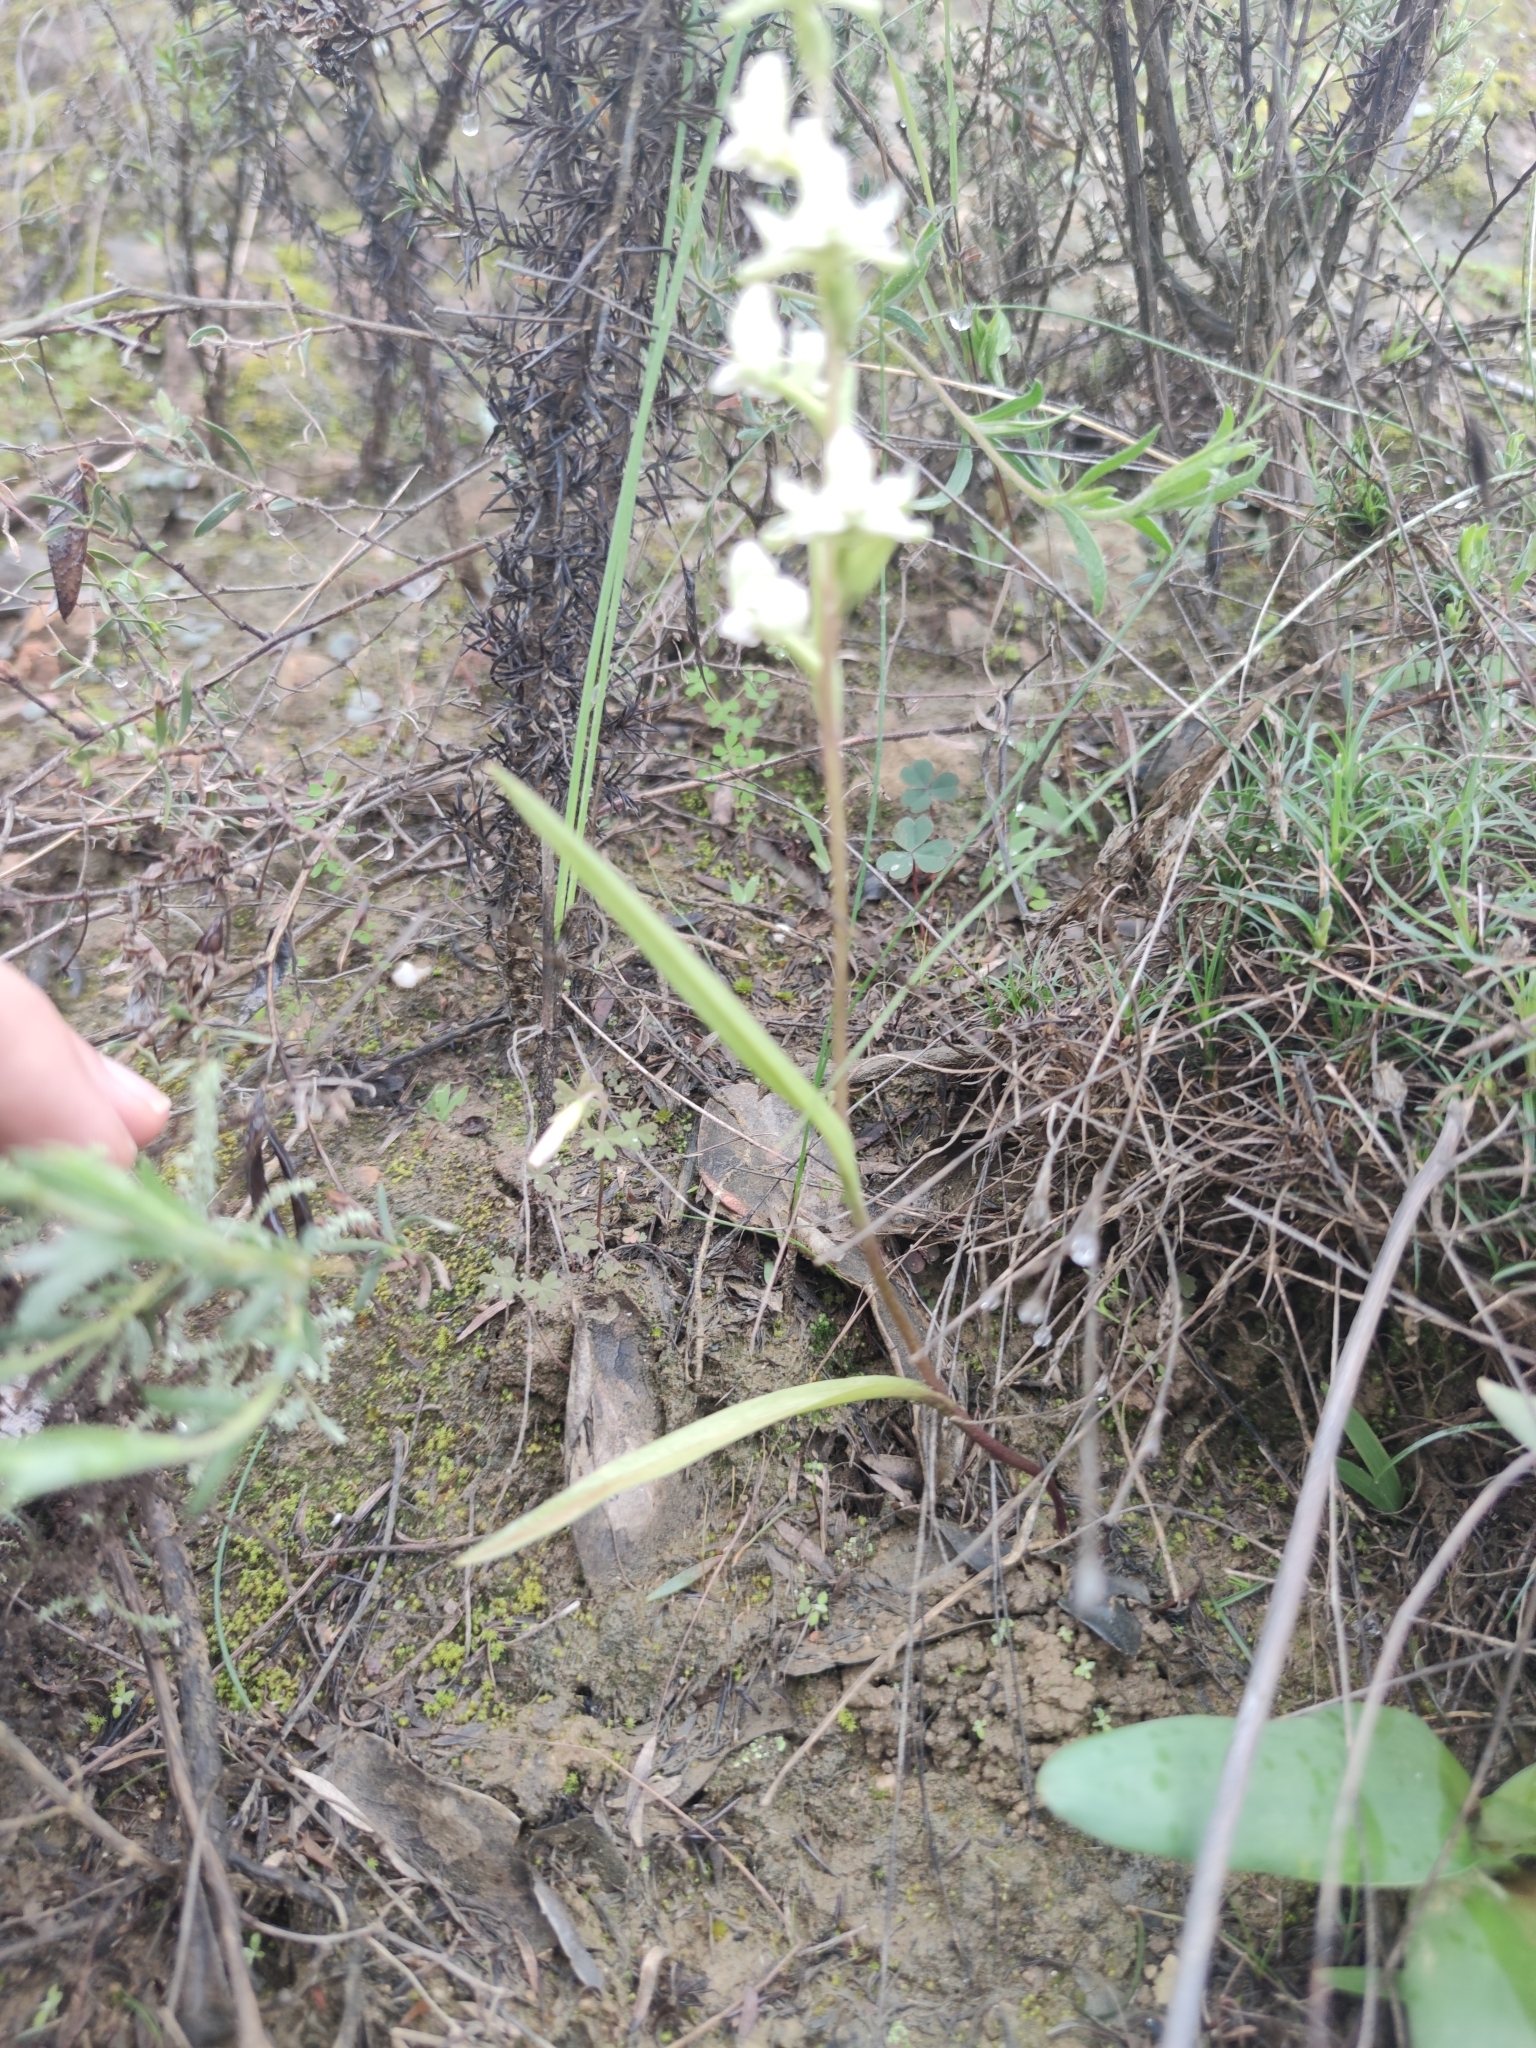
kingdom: Plantae
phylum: Tracheophyta
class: Liliopsida
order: Asparagales
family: Orchidaceae
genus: Disperis
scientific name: Disperis circumflexa
